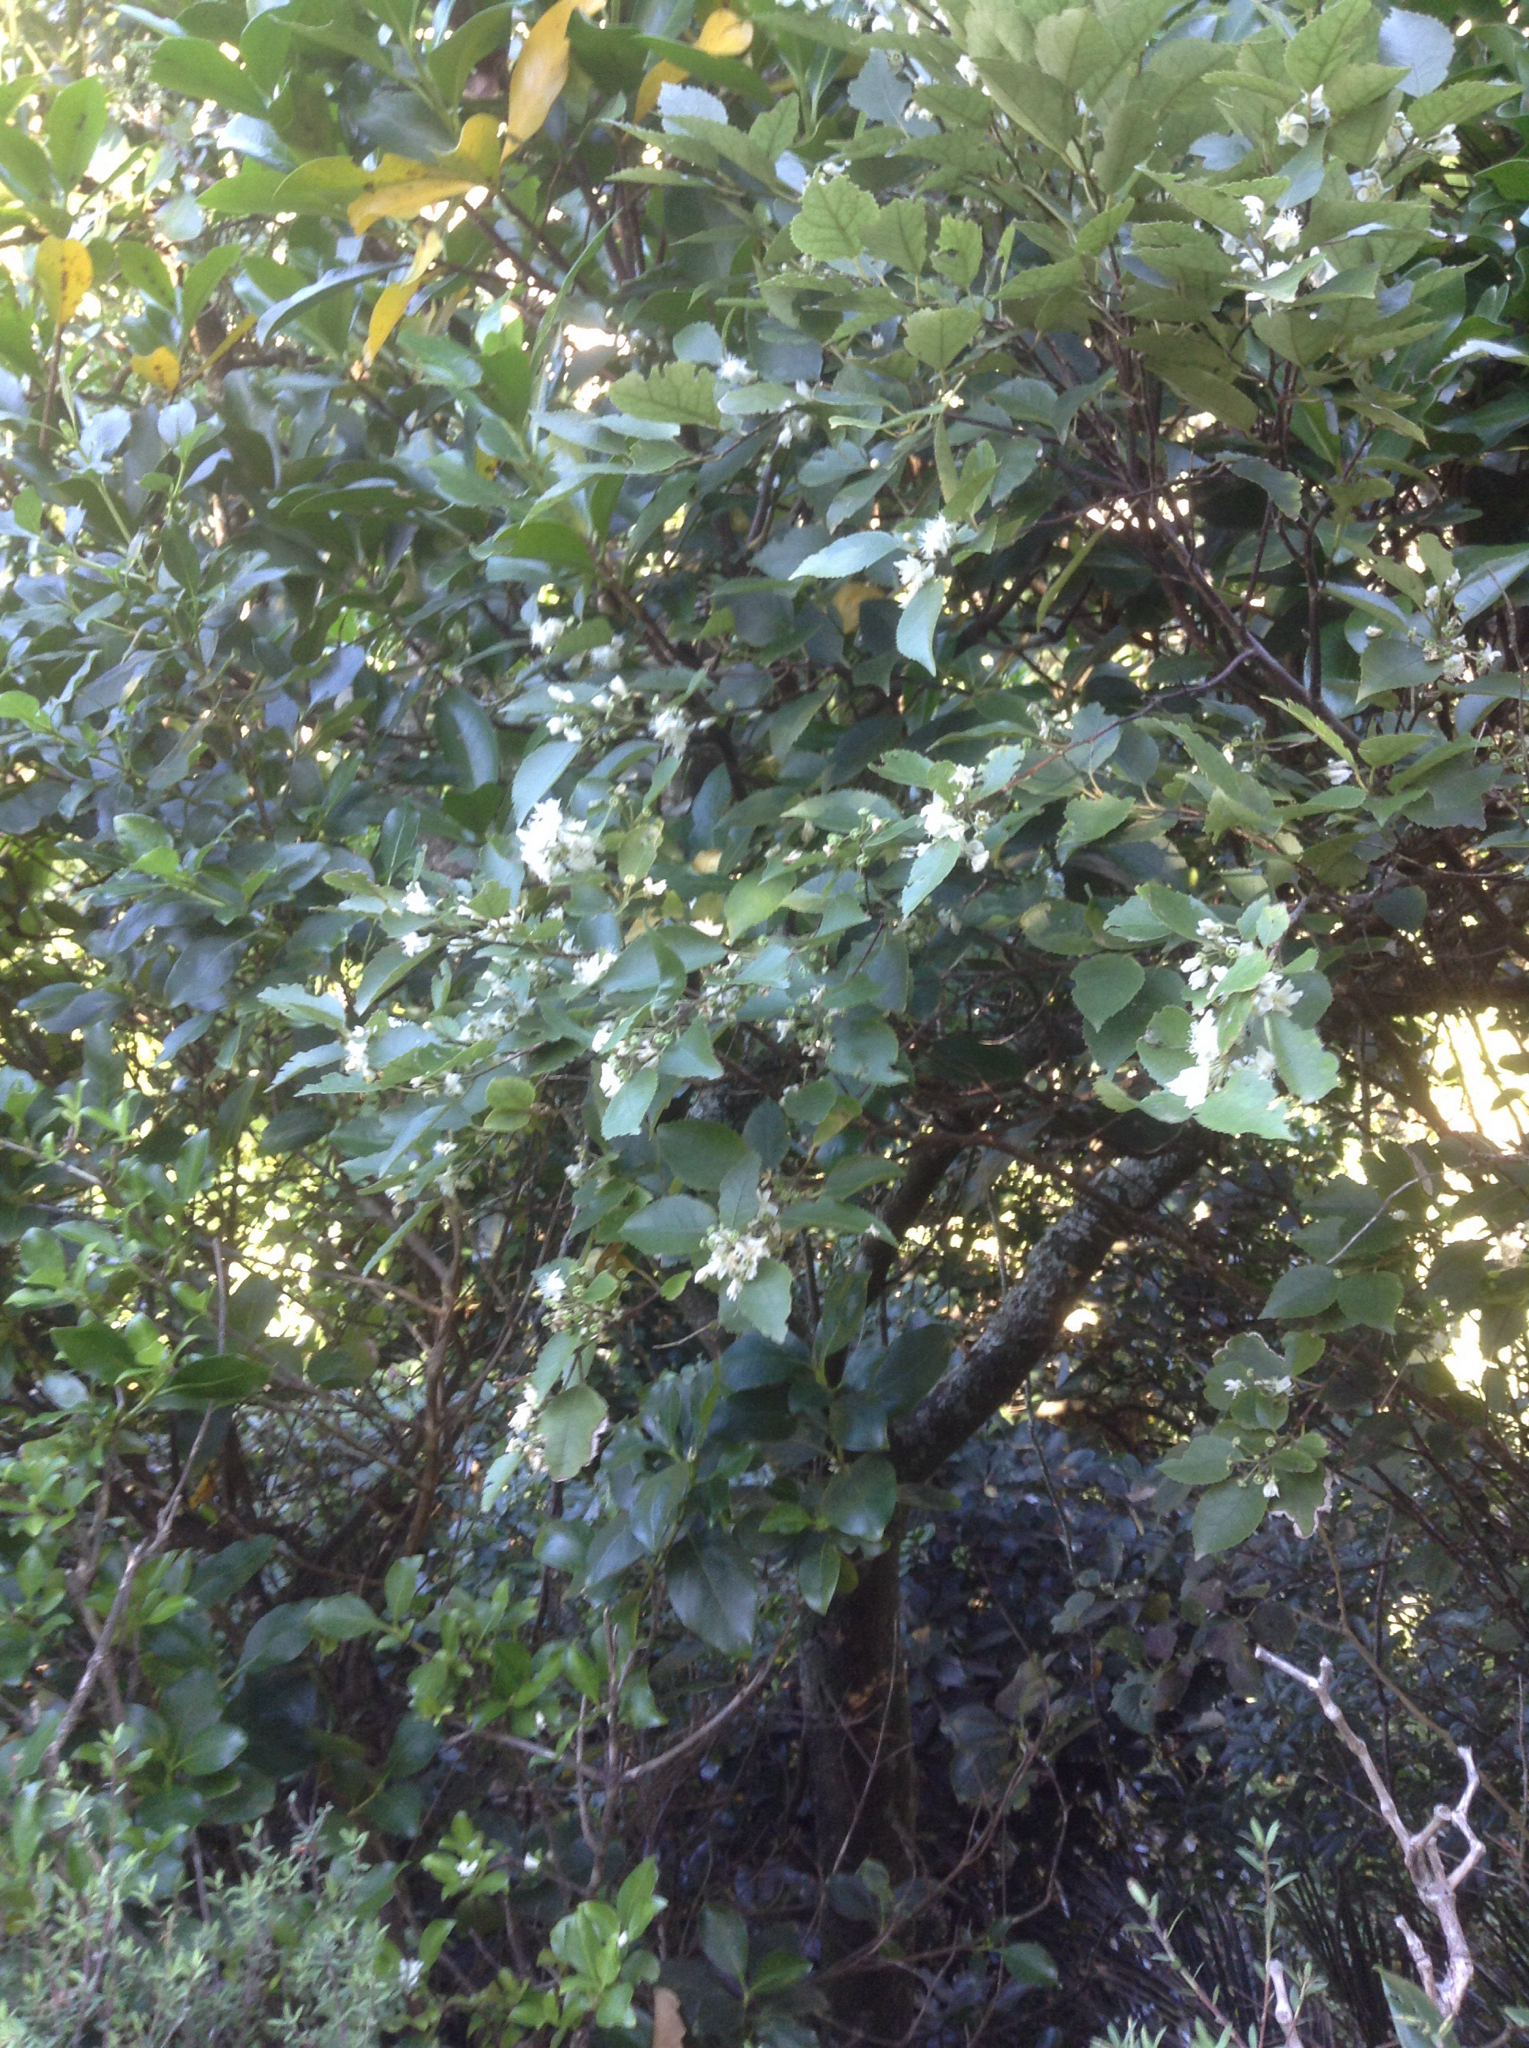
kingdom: Plantae
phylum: Tracheophyta
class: Magnoliopsida
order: Malvales
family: Malvaceae
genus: Hoheria
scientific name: Hoheria populnea
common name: Lacebark
